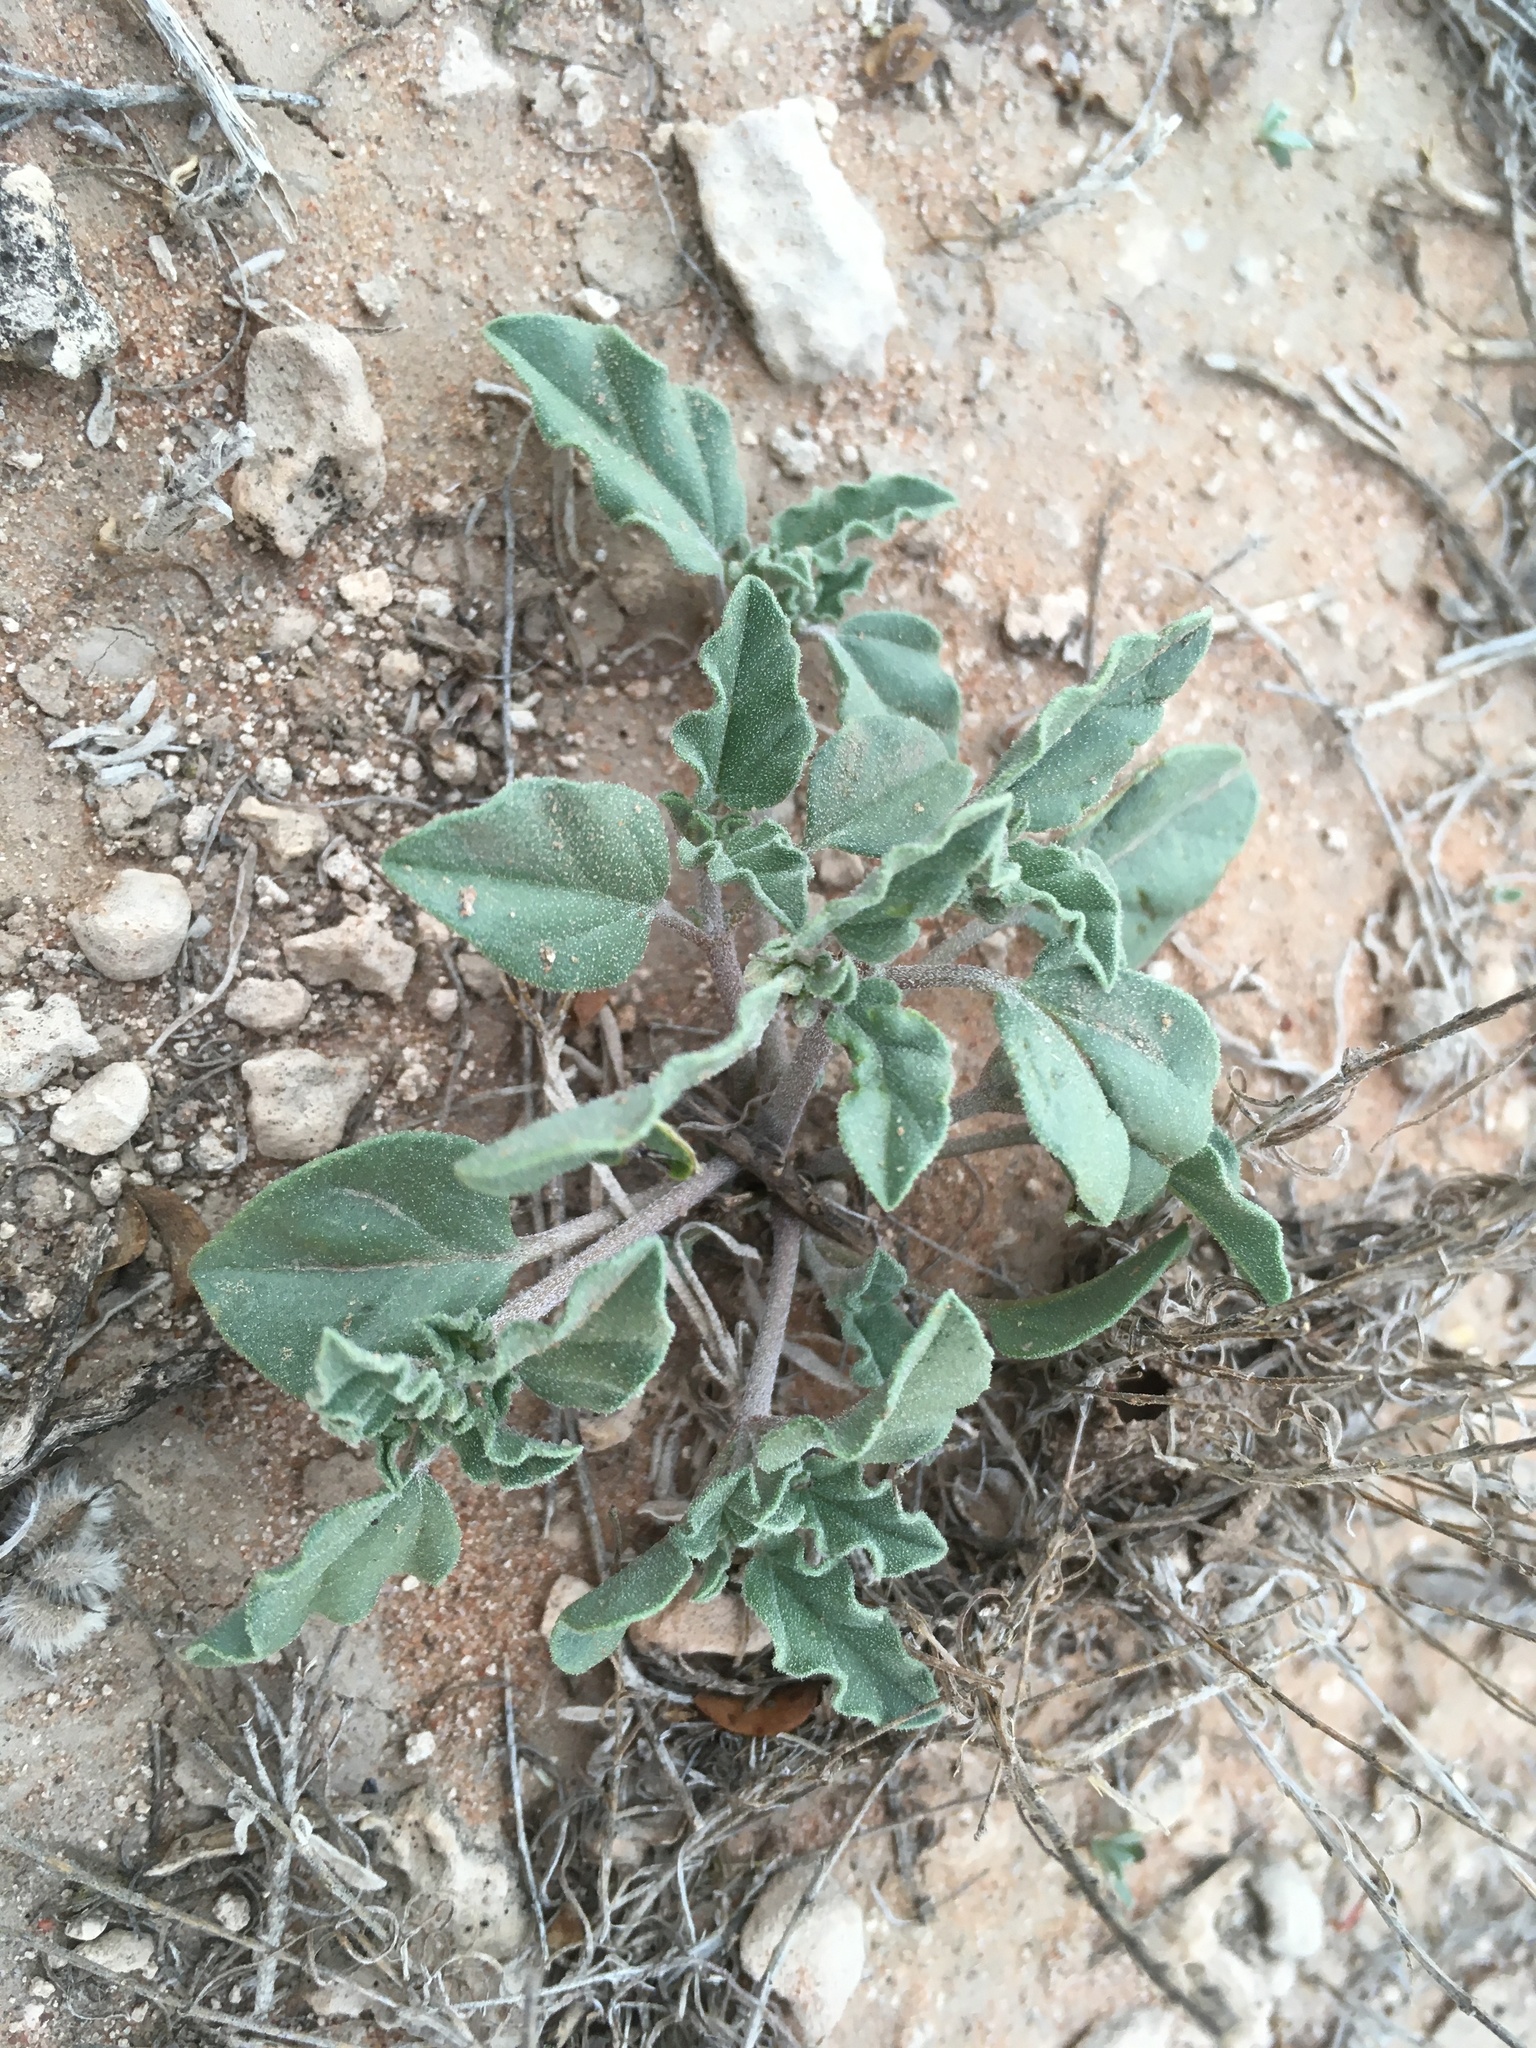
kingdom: Plantae
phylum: Tracheophyta
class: Magnoliopsida
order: Caryophyllales
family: Nyctaginaceae
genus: Acleisanthes
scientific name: Acleisanthes diffusa
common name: Spreading moonpod
